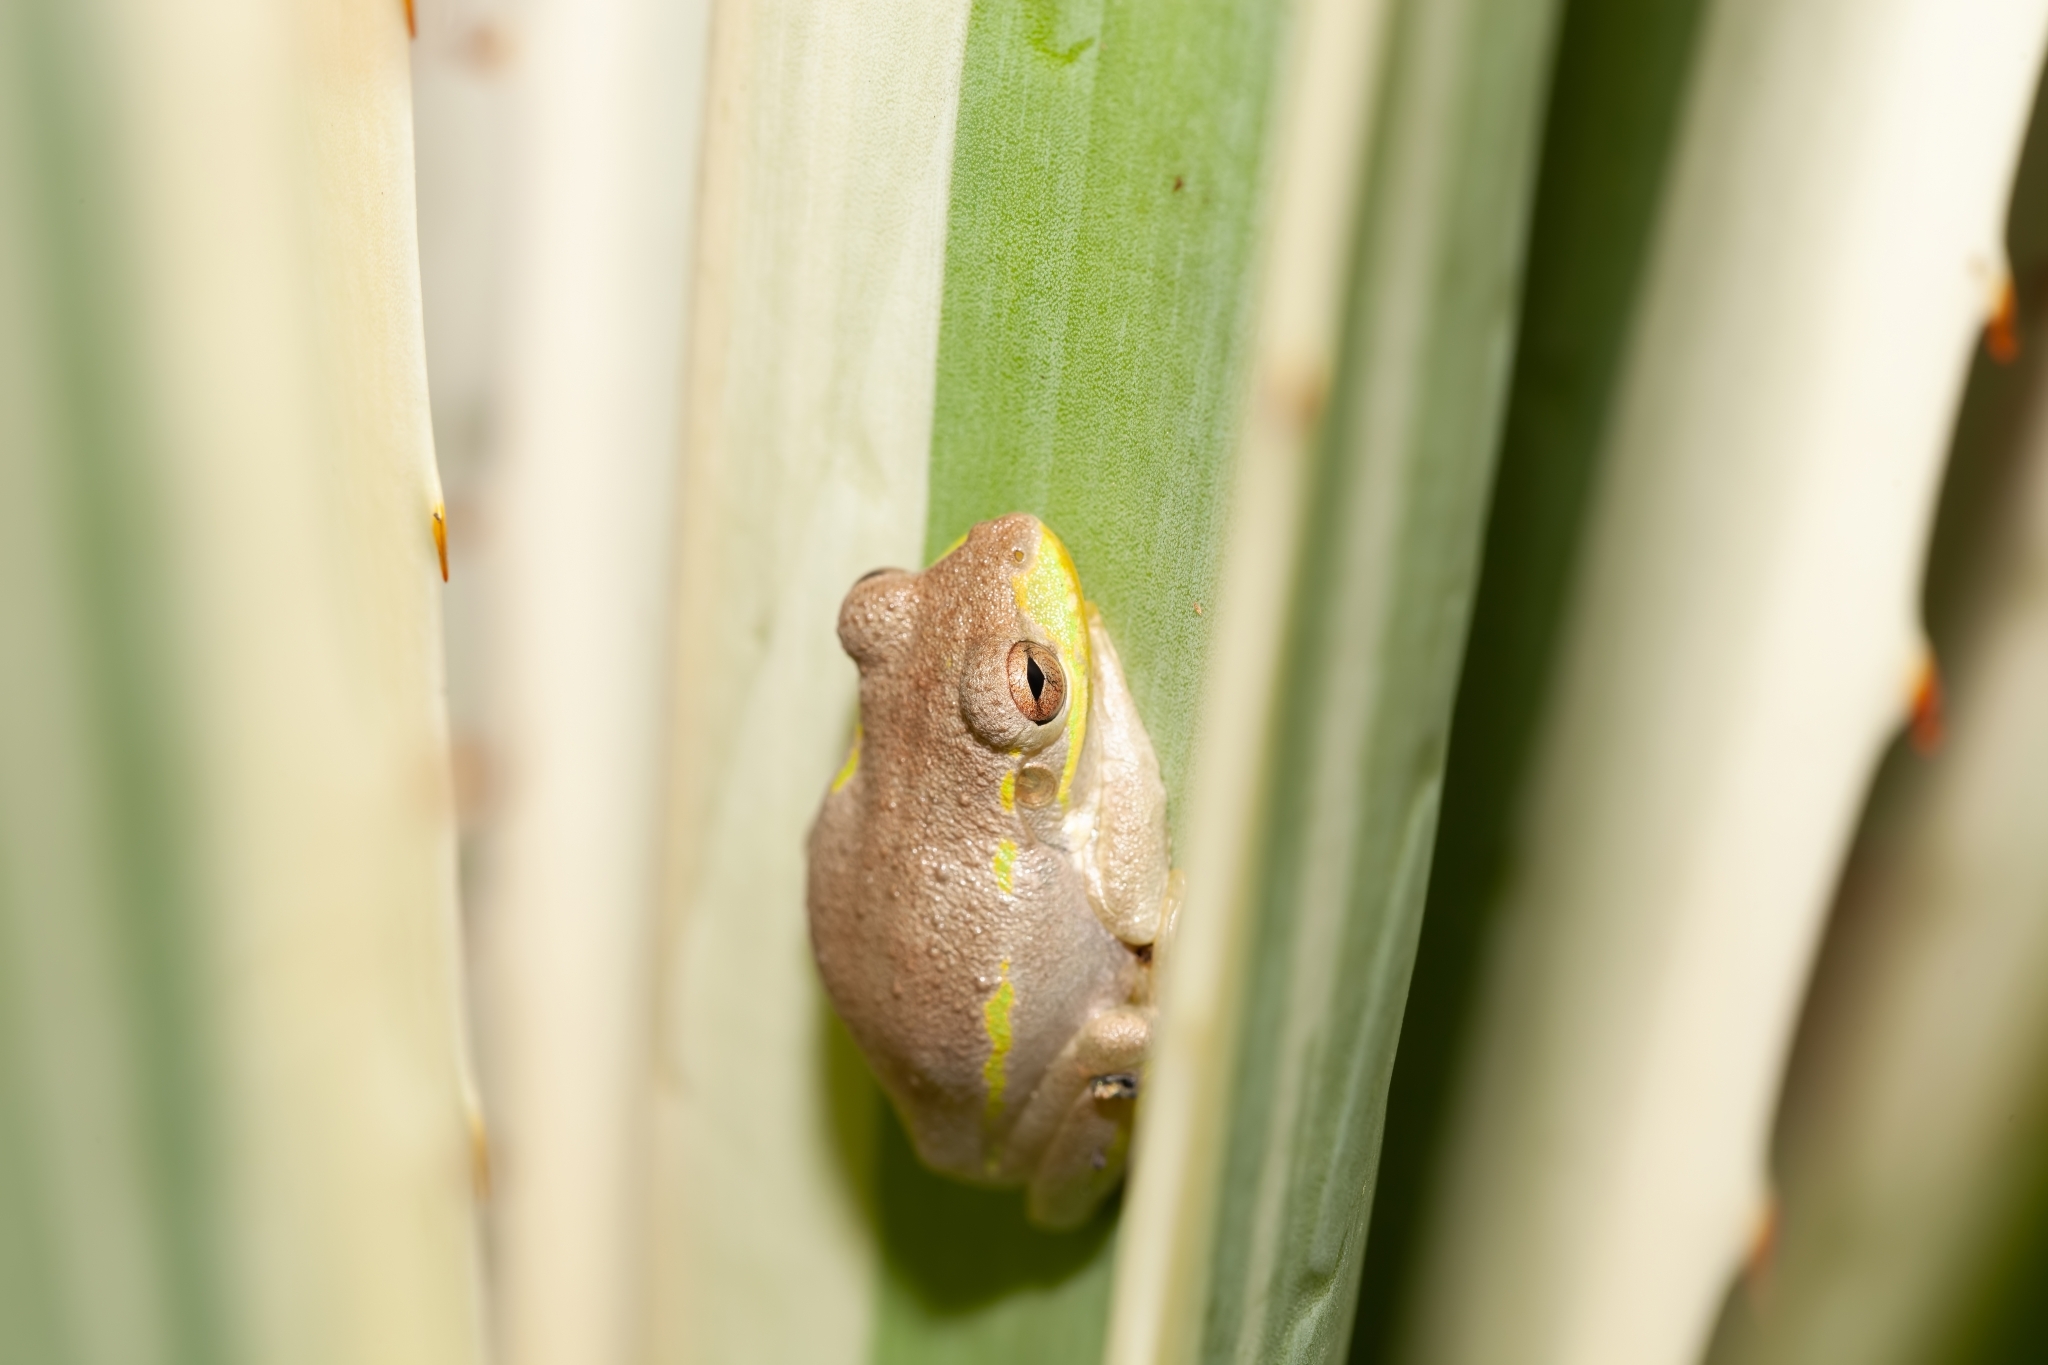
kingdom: Animalia
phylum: Chordata
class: Amphibia
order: Anura
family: Hylidae
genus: Osteopilus
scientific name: Osteopilus septentrionalis
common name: Cuban treefrog
